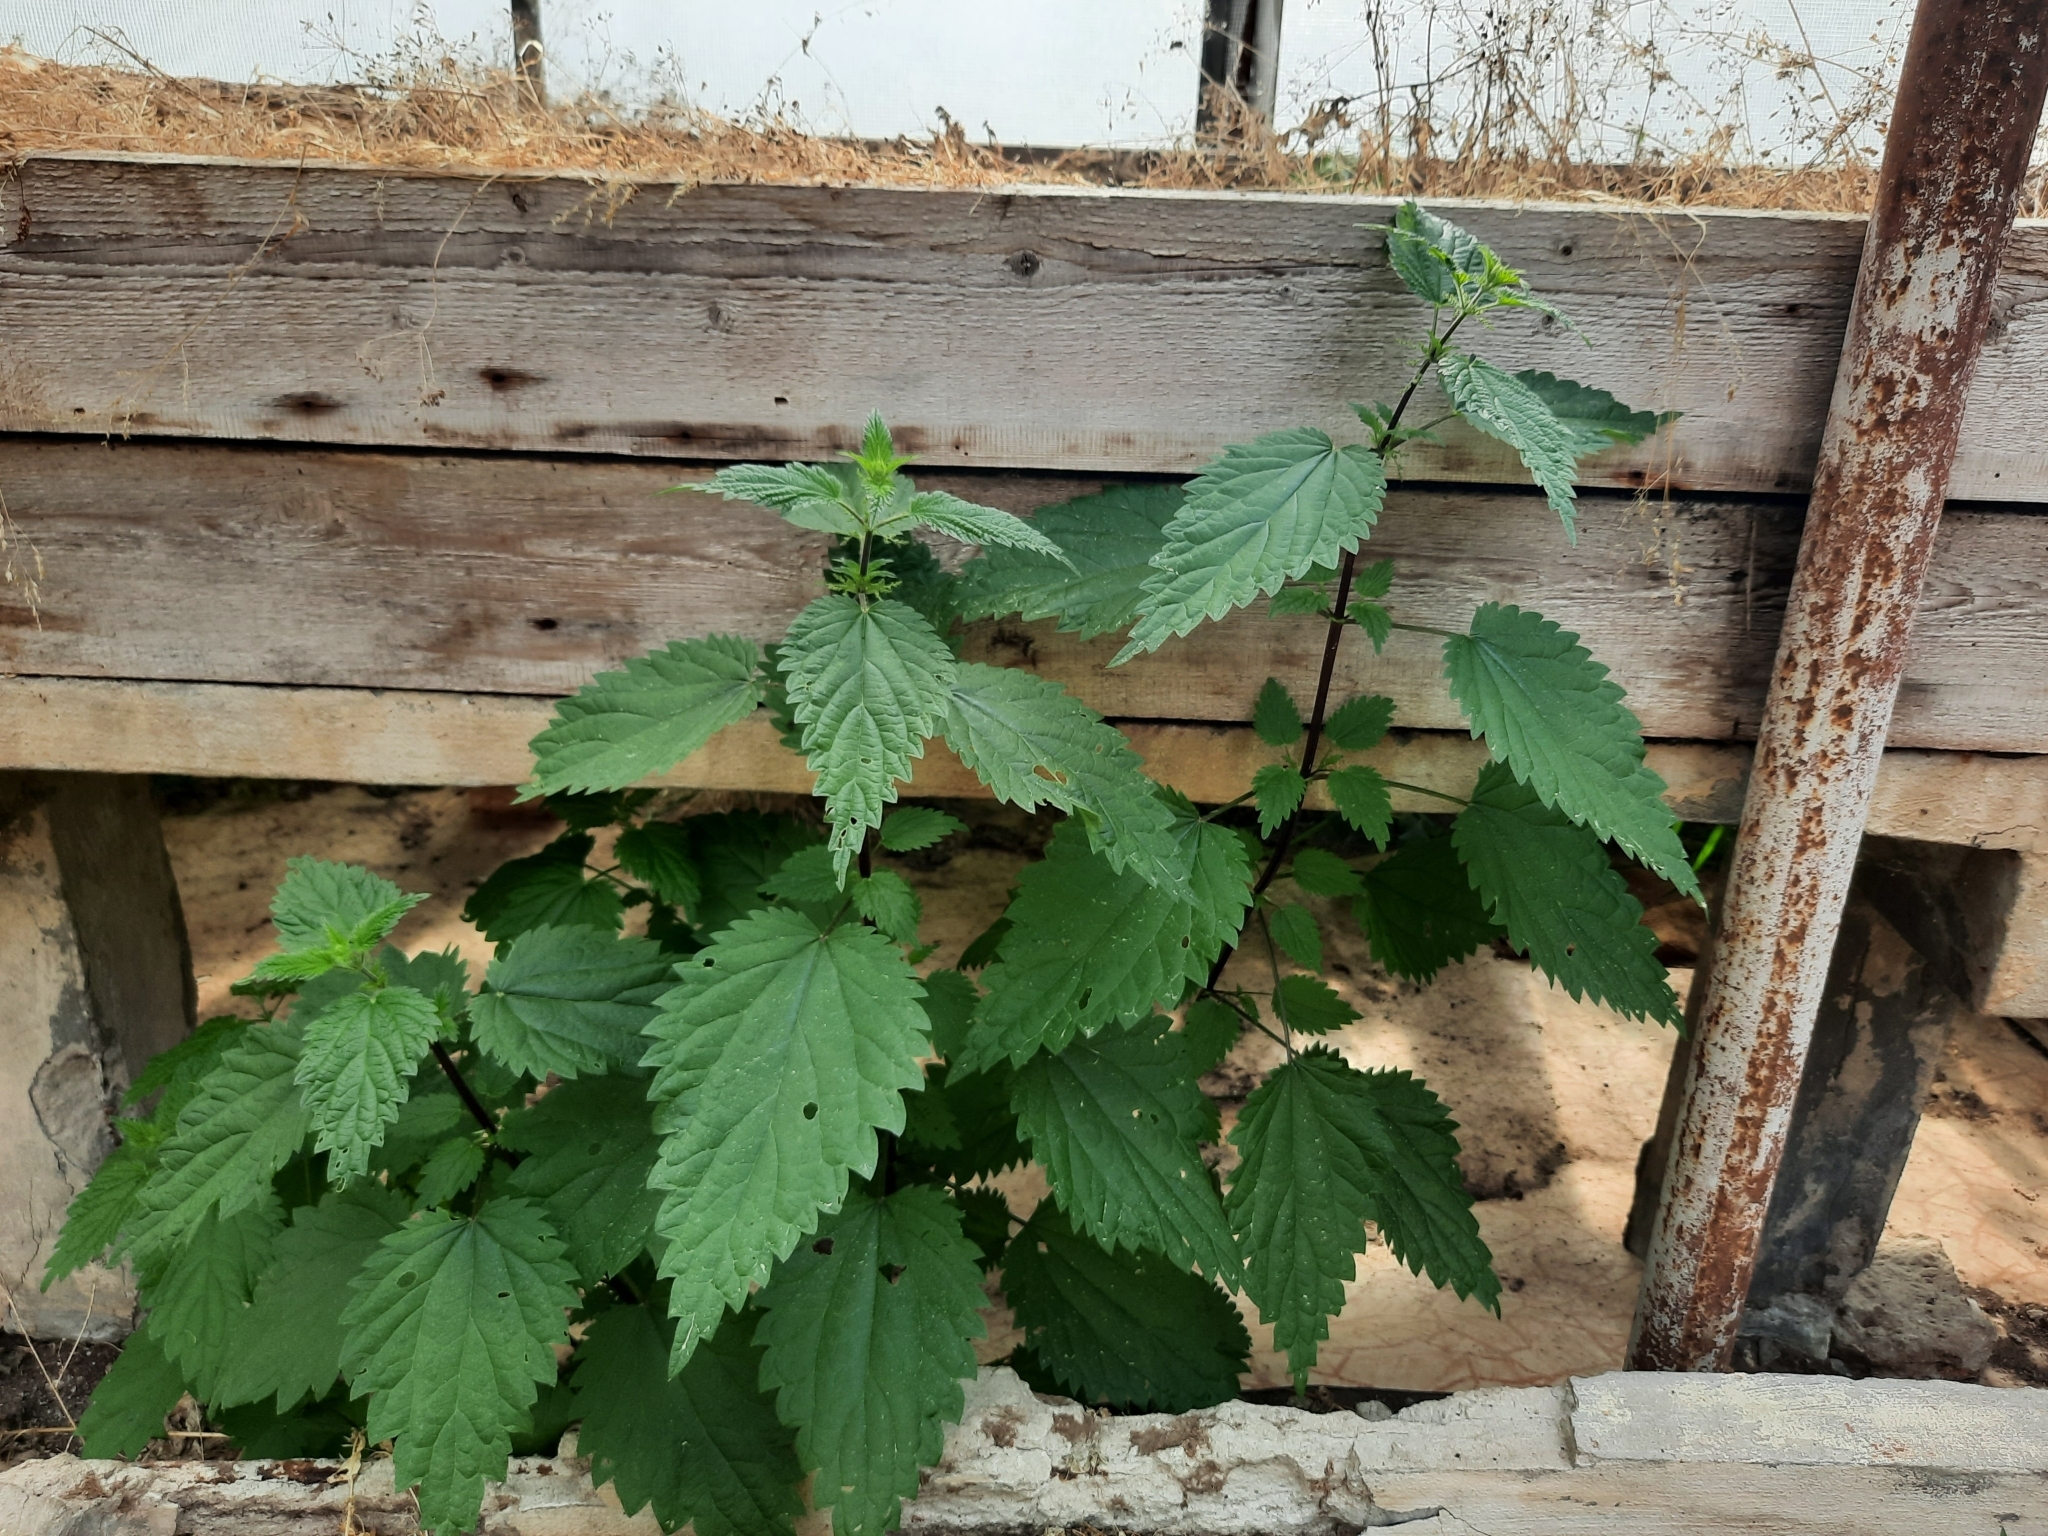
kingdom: Plantae
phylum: Tracheophyta
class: Magnoliopsida
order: Rosales
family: Urticaceae
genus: Urtica
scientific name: Urtica dioica
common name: Common nettle
